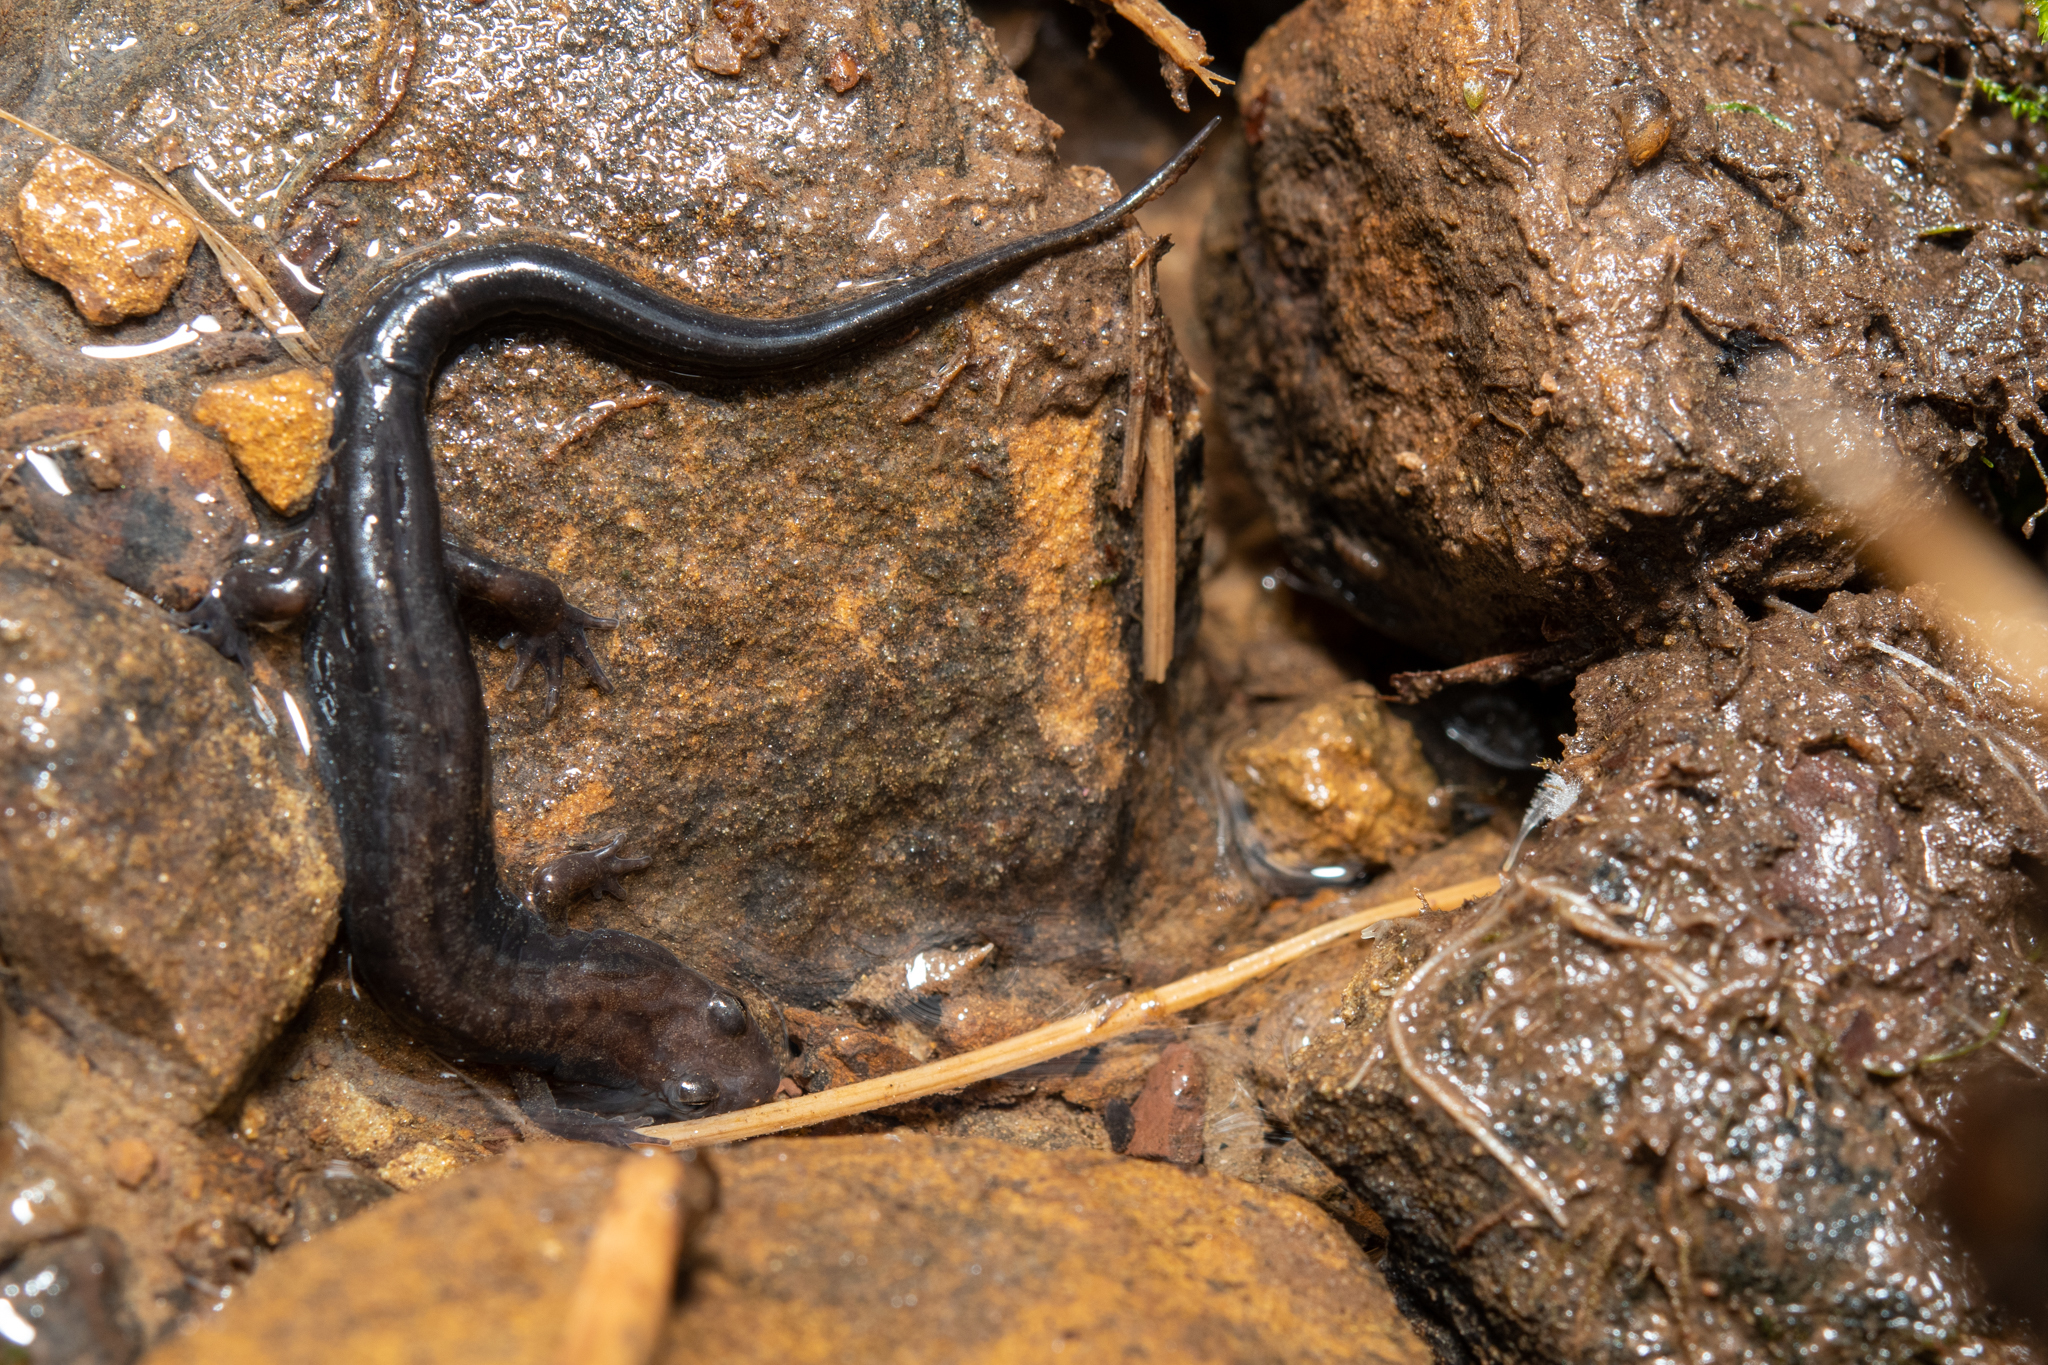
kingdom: Animalia
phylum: Chordata
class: Amphibia
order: Caudata
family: Plethodontidae
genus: Desmognathus
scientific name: Desmognathus ochrophaeus
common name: Allegheny mountain dusky salamander
